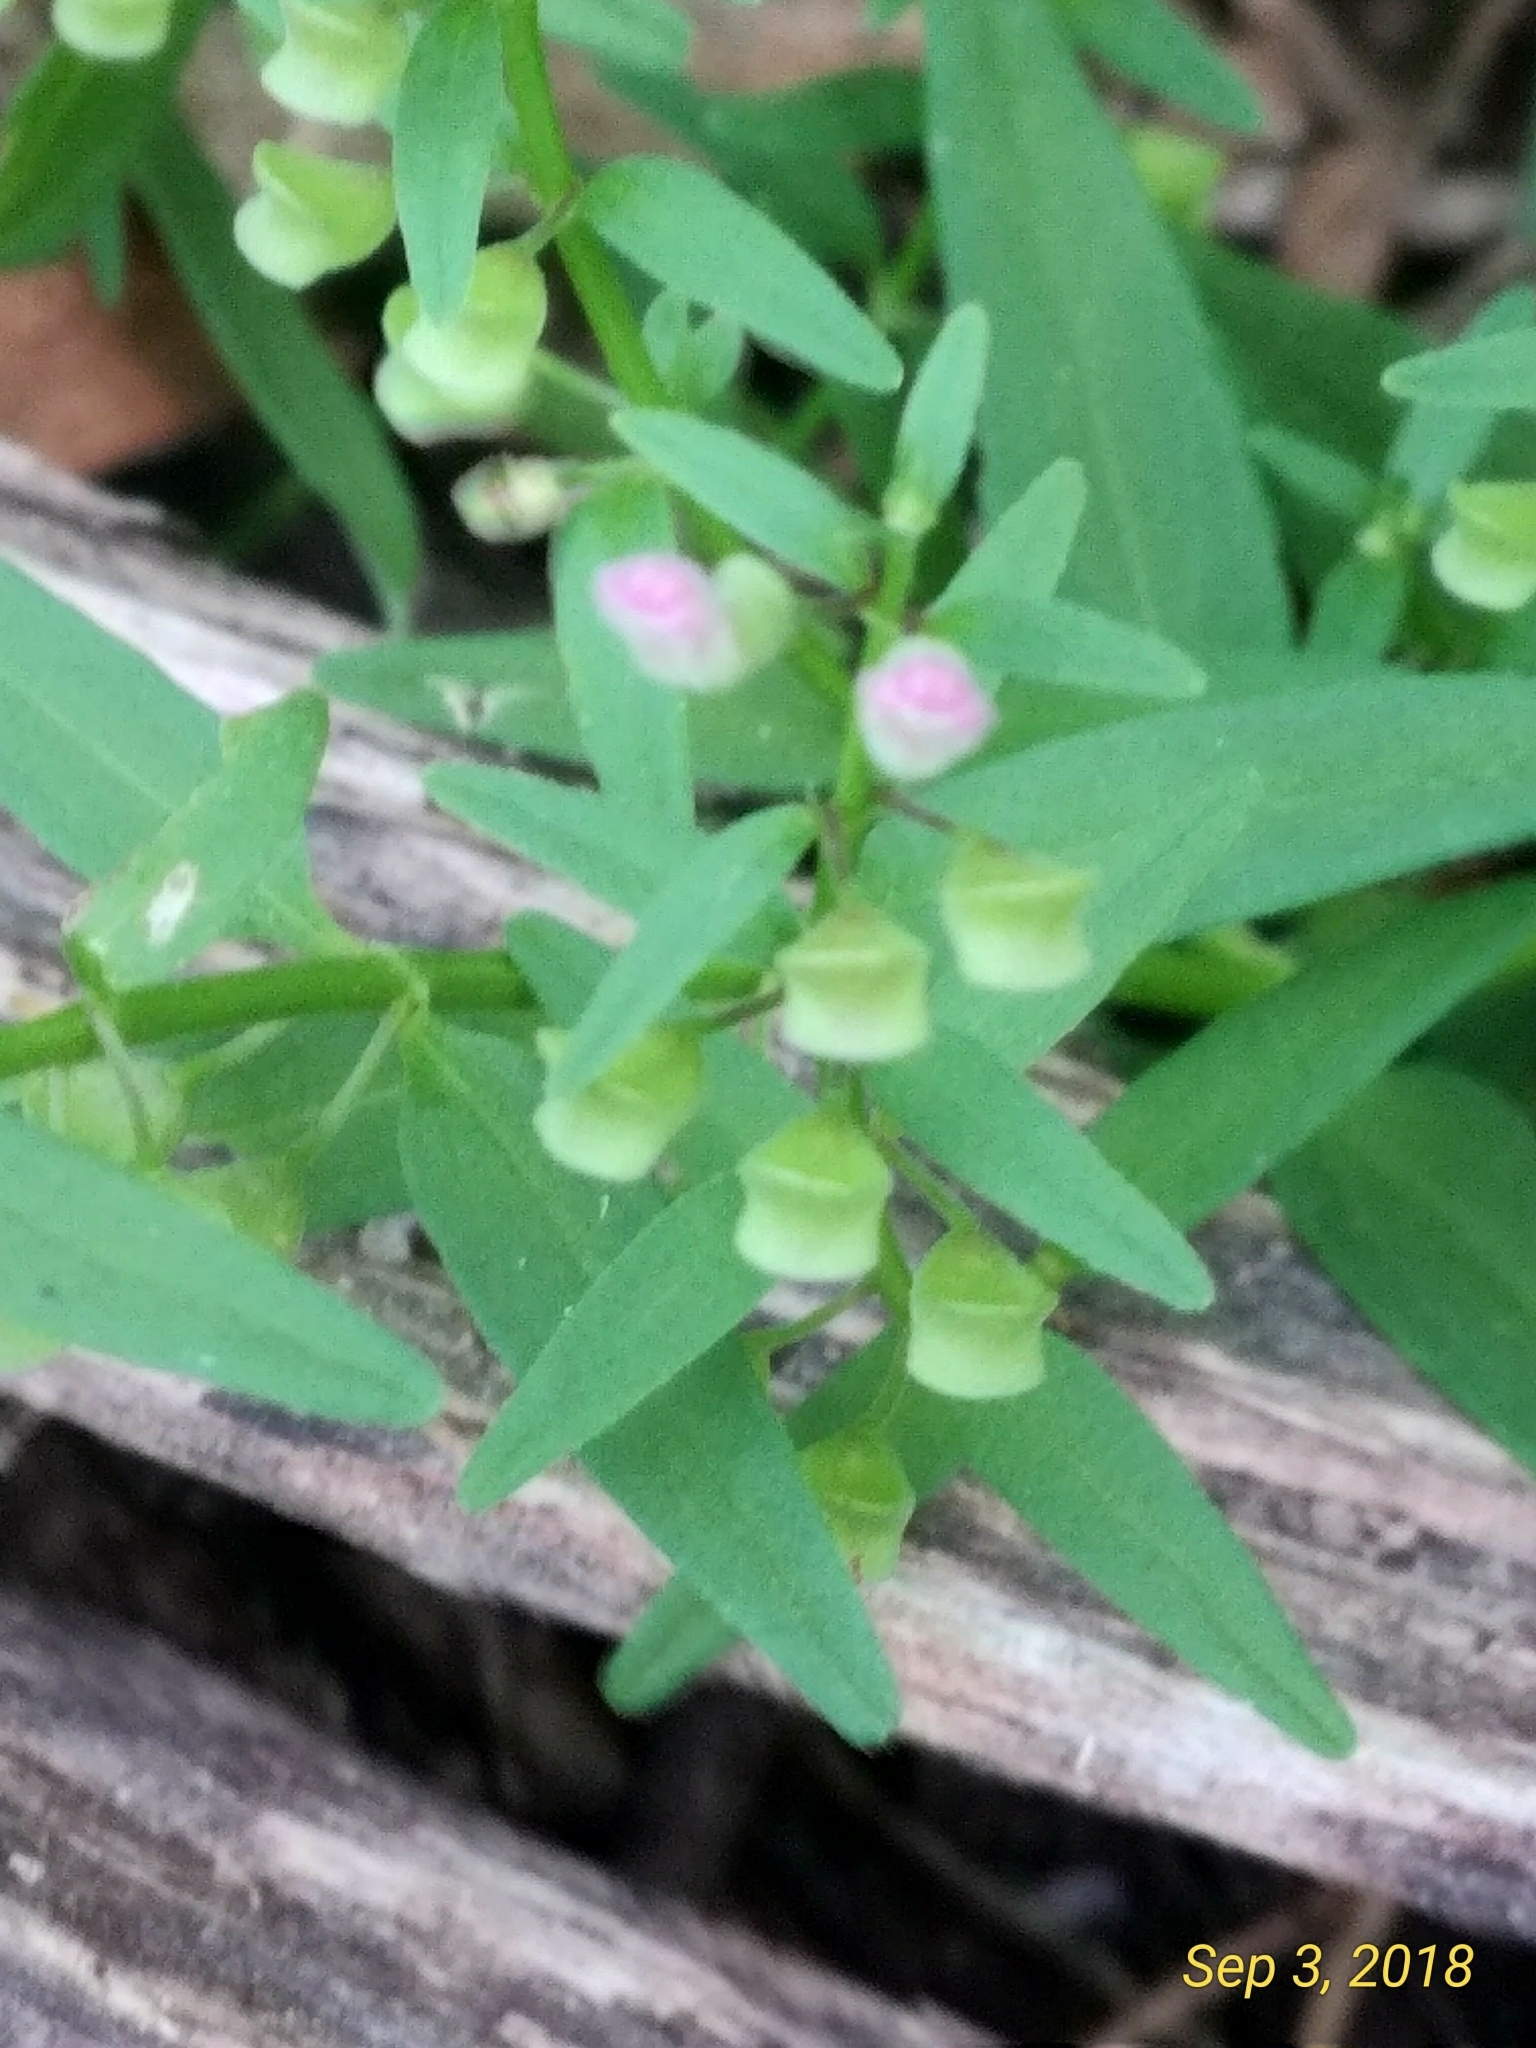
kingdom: Plantae
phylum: Tracheophyta
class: Magnoliopsida
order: Lamiales
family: Lamiaceae
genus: Scutellaria
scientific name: Scutellaria racemosa
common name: South american skullcap
